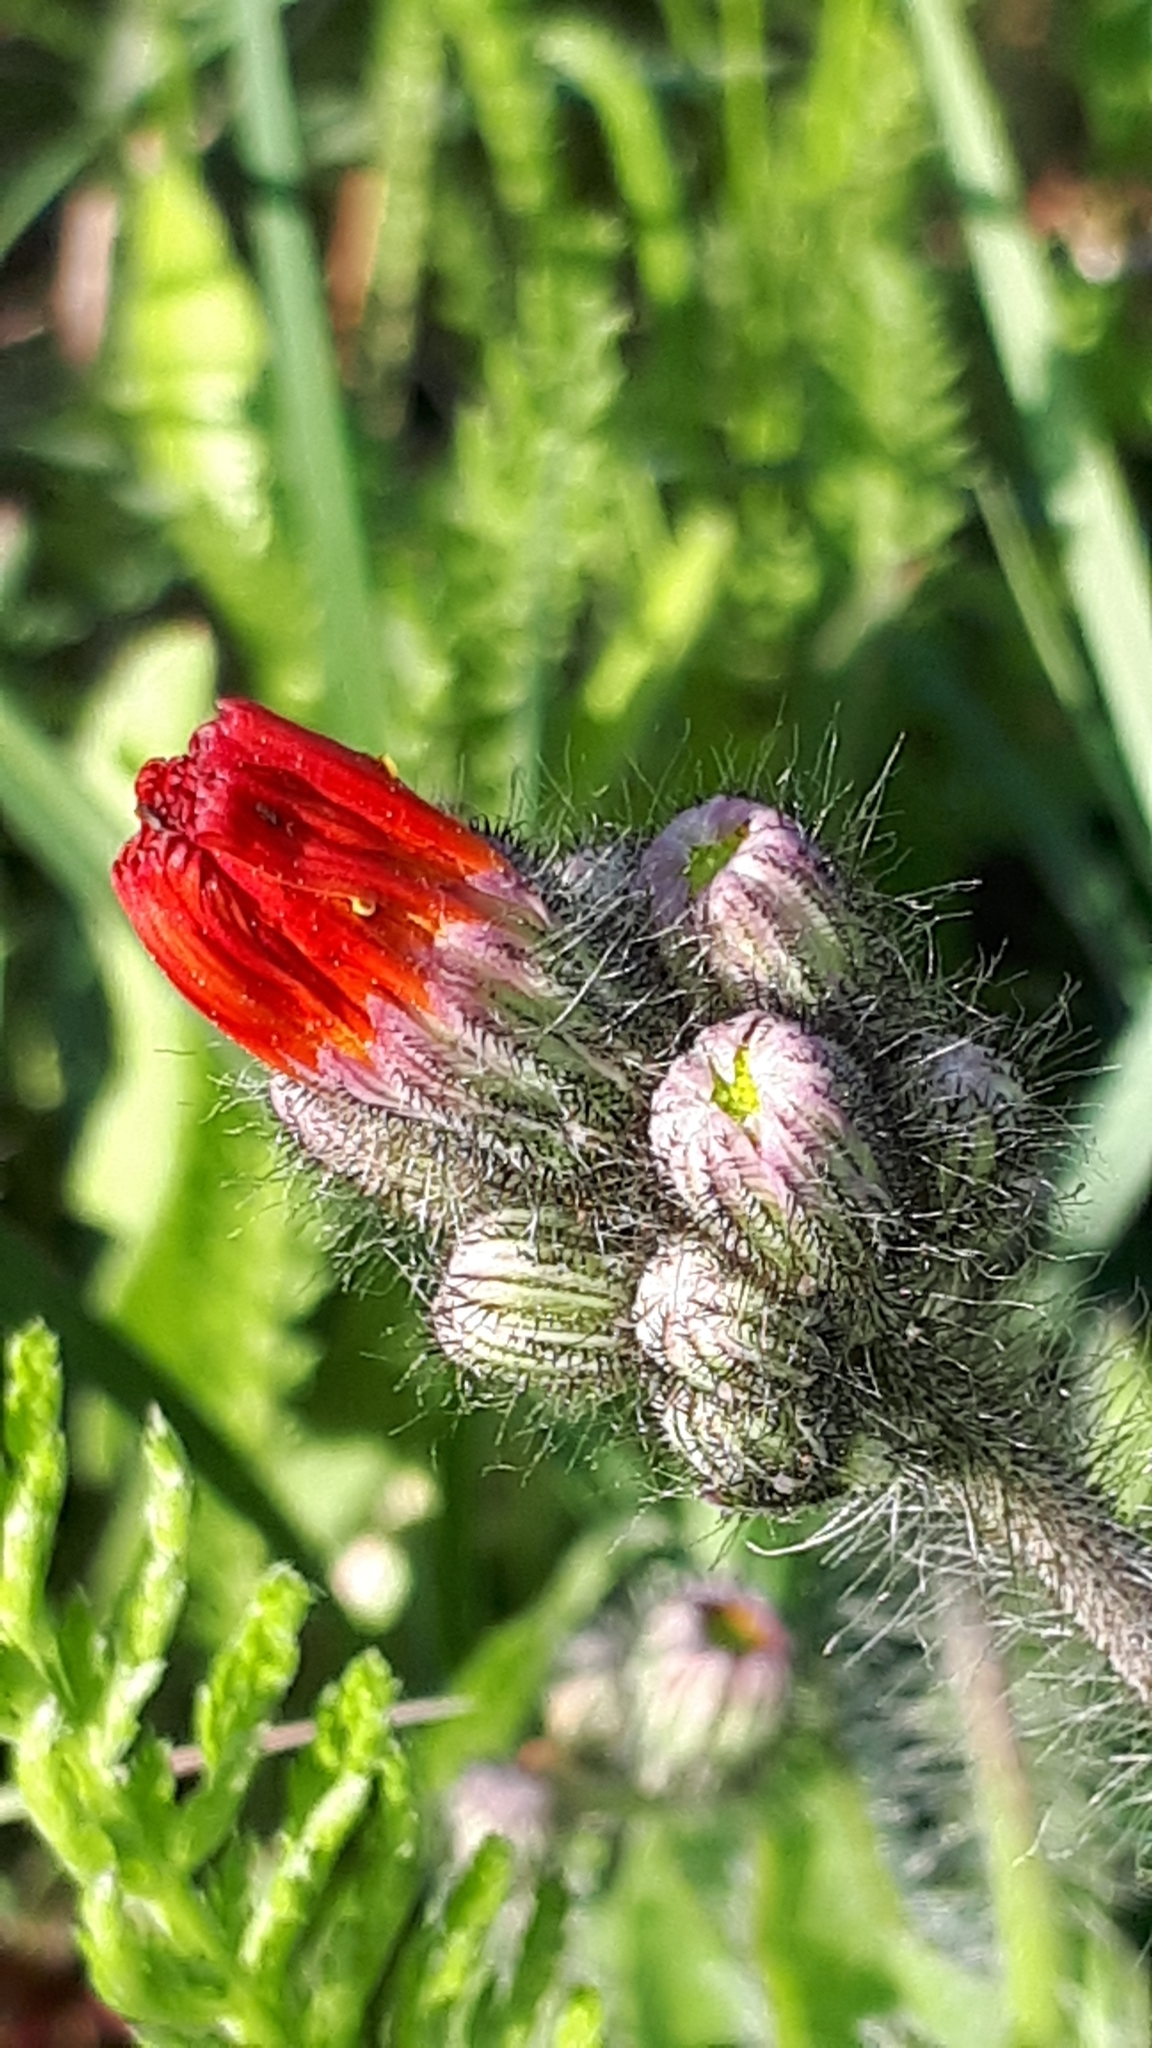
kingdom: Plantae
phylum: Tracheophyta
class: Magnoliopsida
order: Asterales
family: Asteraceae
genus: Pilosella
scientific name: Pilosella aurantiaca
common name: Fox-and-cubs
